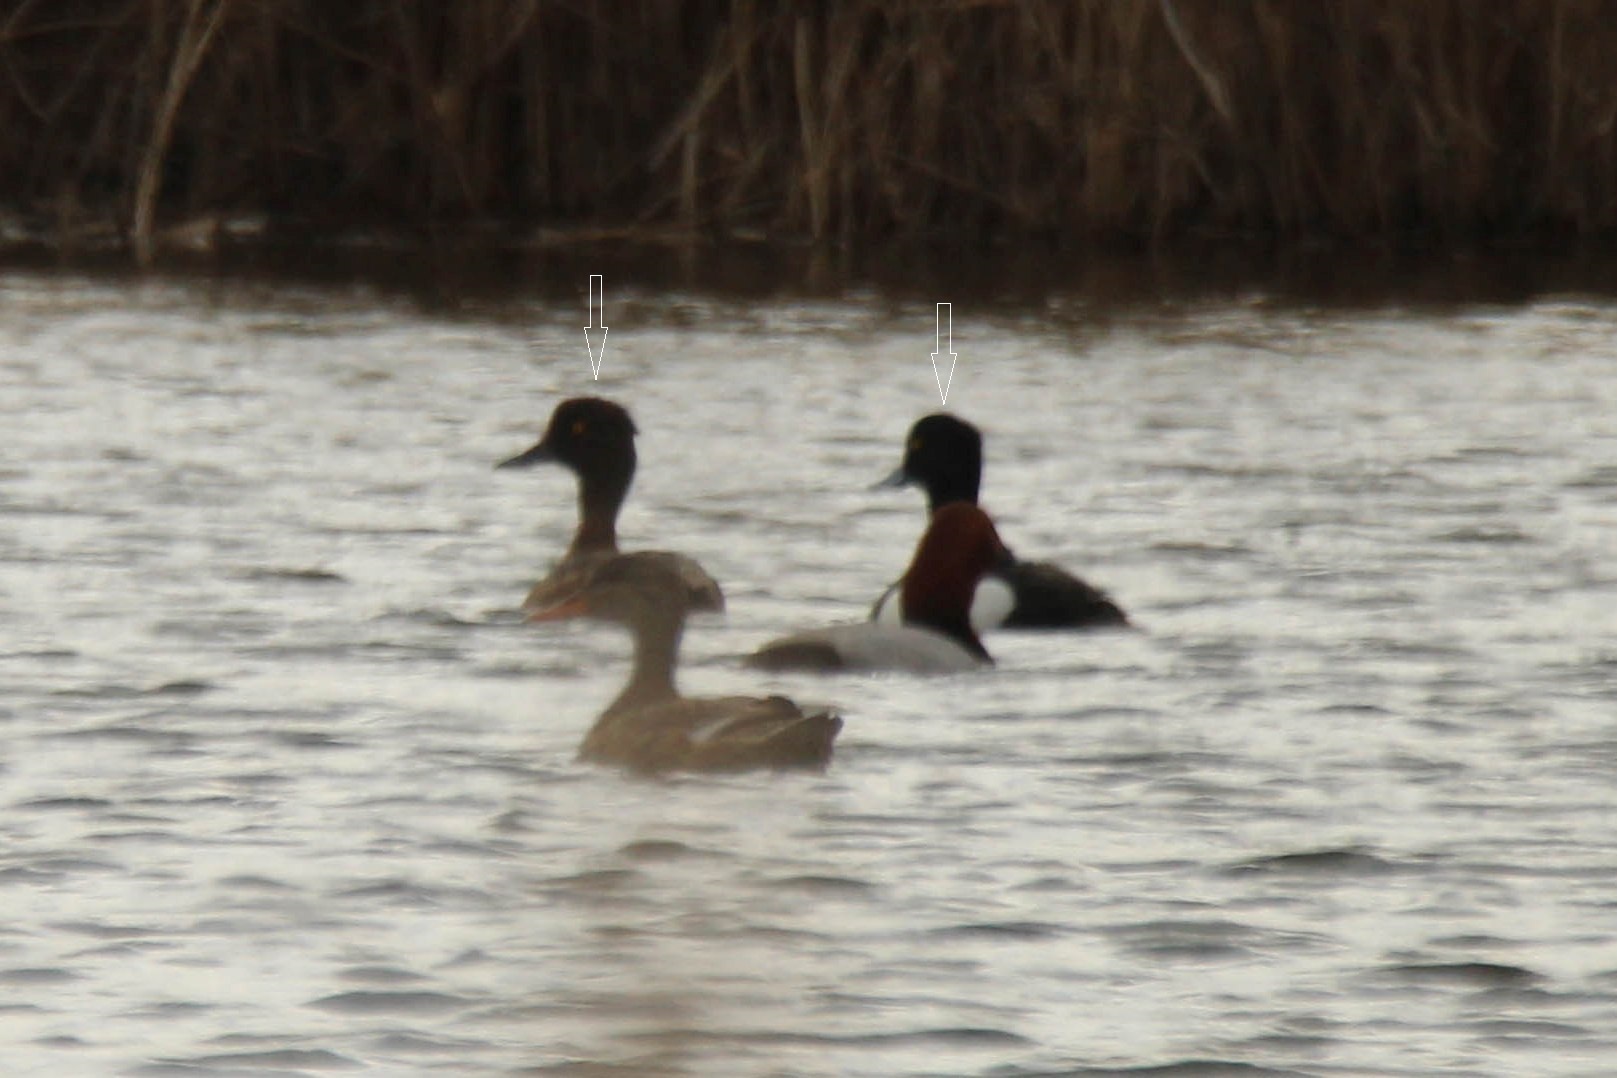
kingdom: Animalia
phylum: Chordata
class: Aves
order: Anseriformes
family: Anatidae
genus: Aythya
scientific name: Aythya fuligula
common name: Tufted duck
